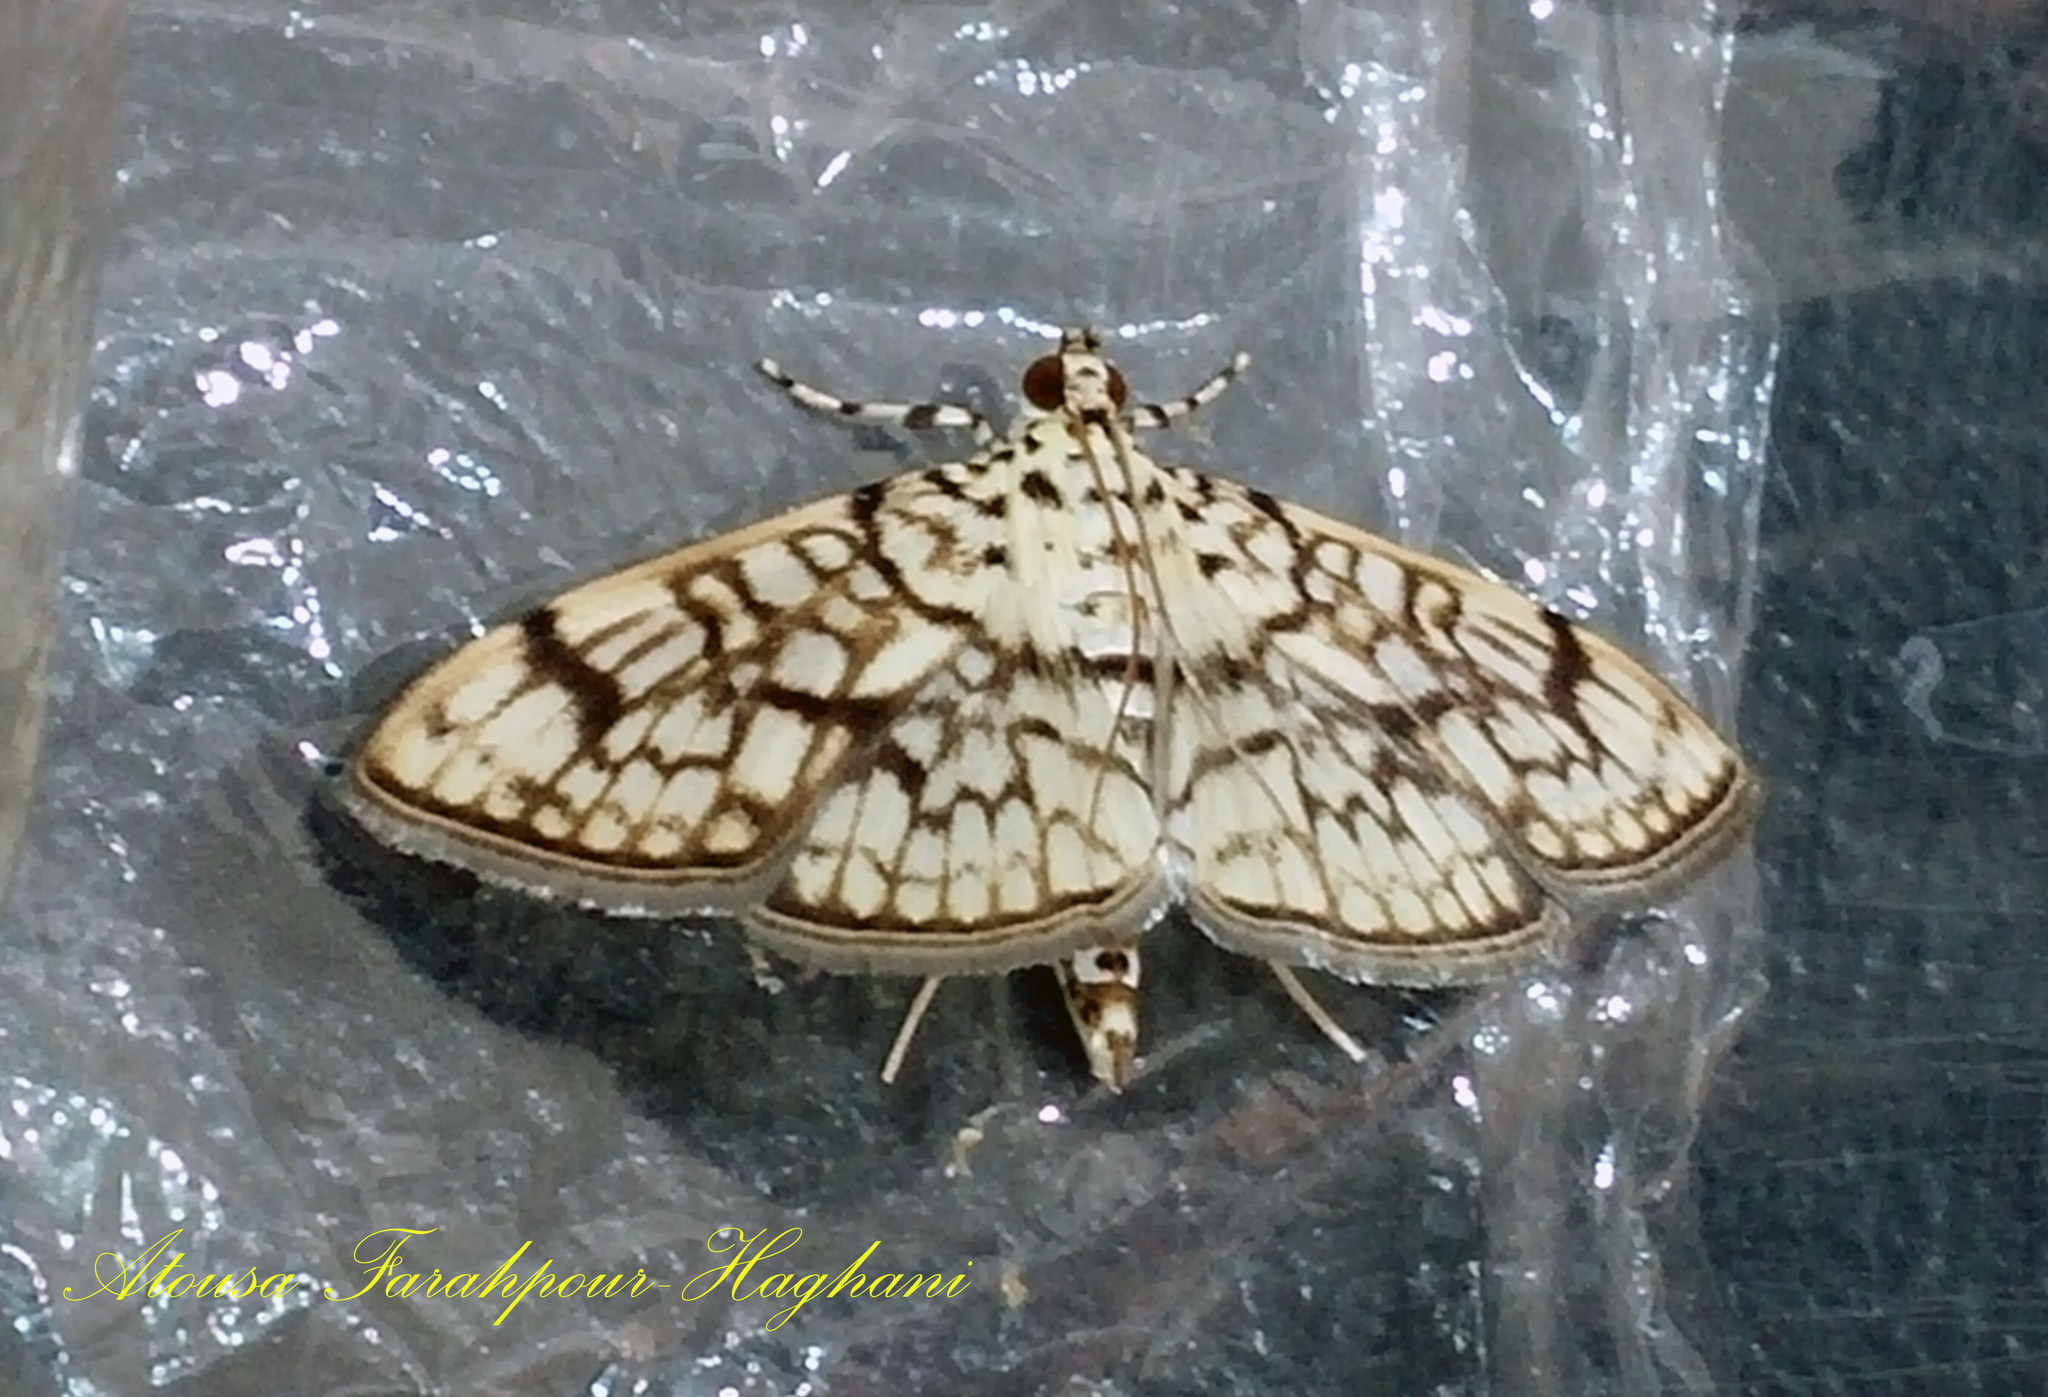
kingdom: Animalia
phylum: Arthropoda
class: Insecta
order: Lepidoptera
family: Crambidae
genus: Haritalodes
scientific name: Haritalodes derogata
